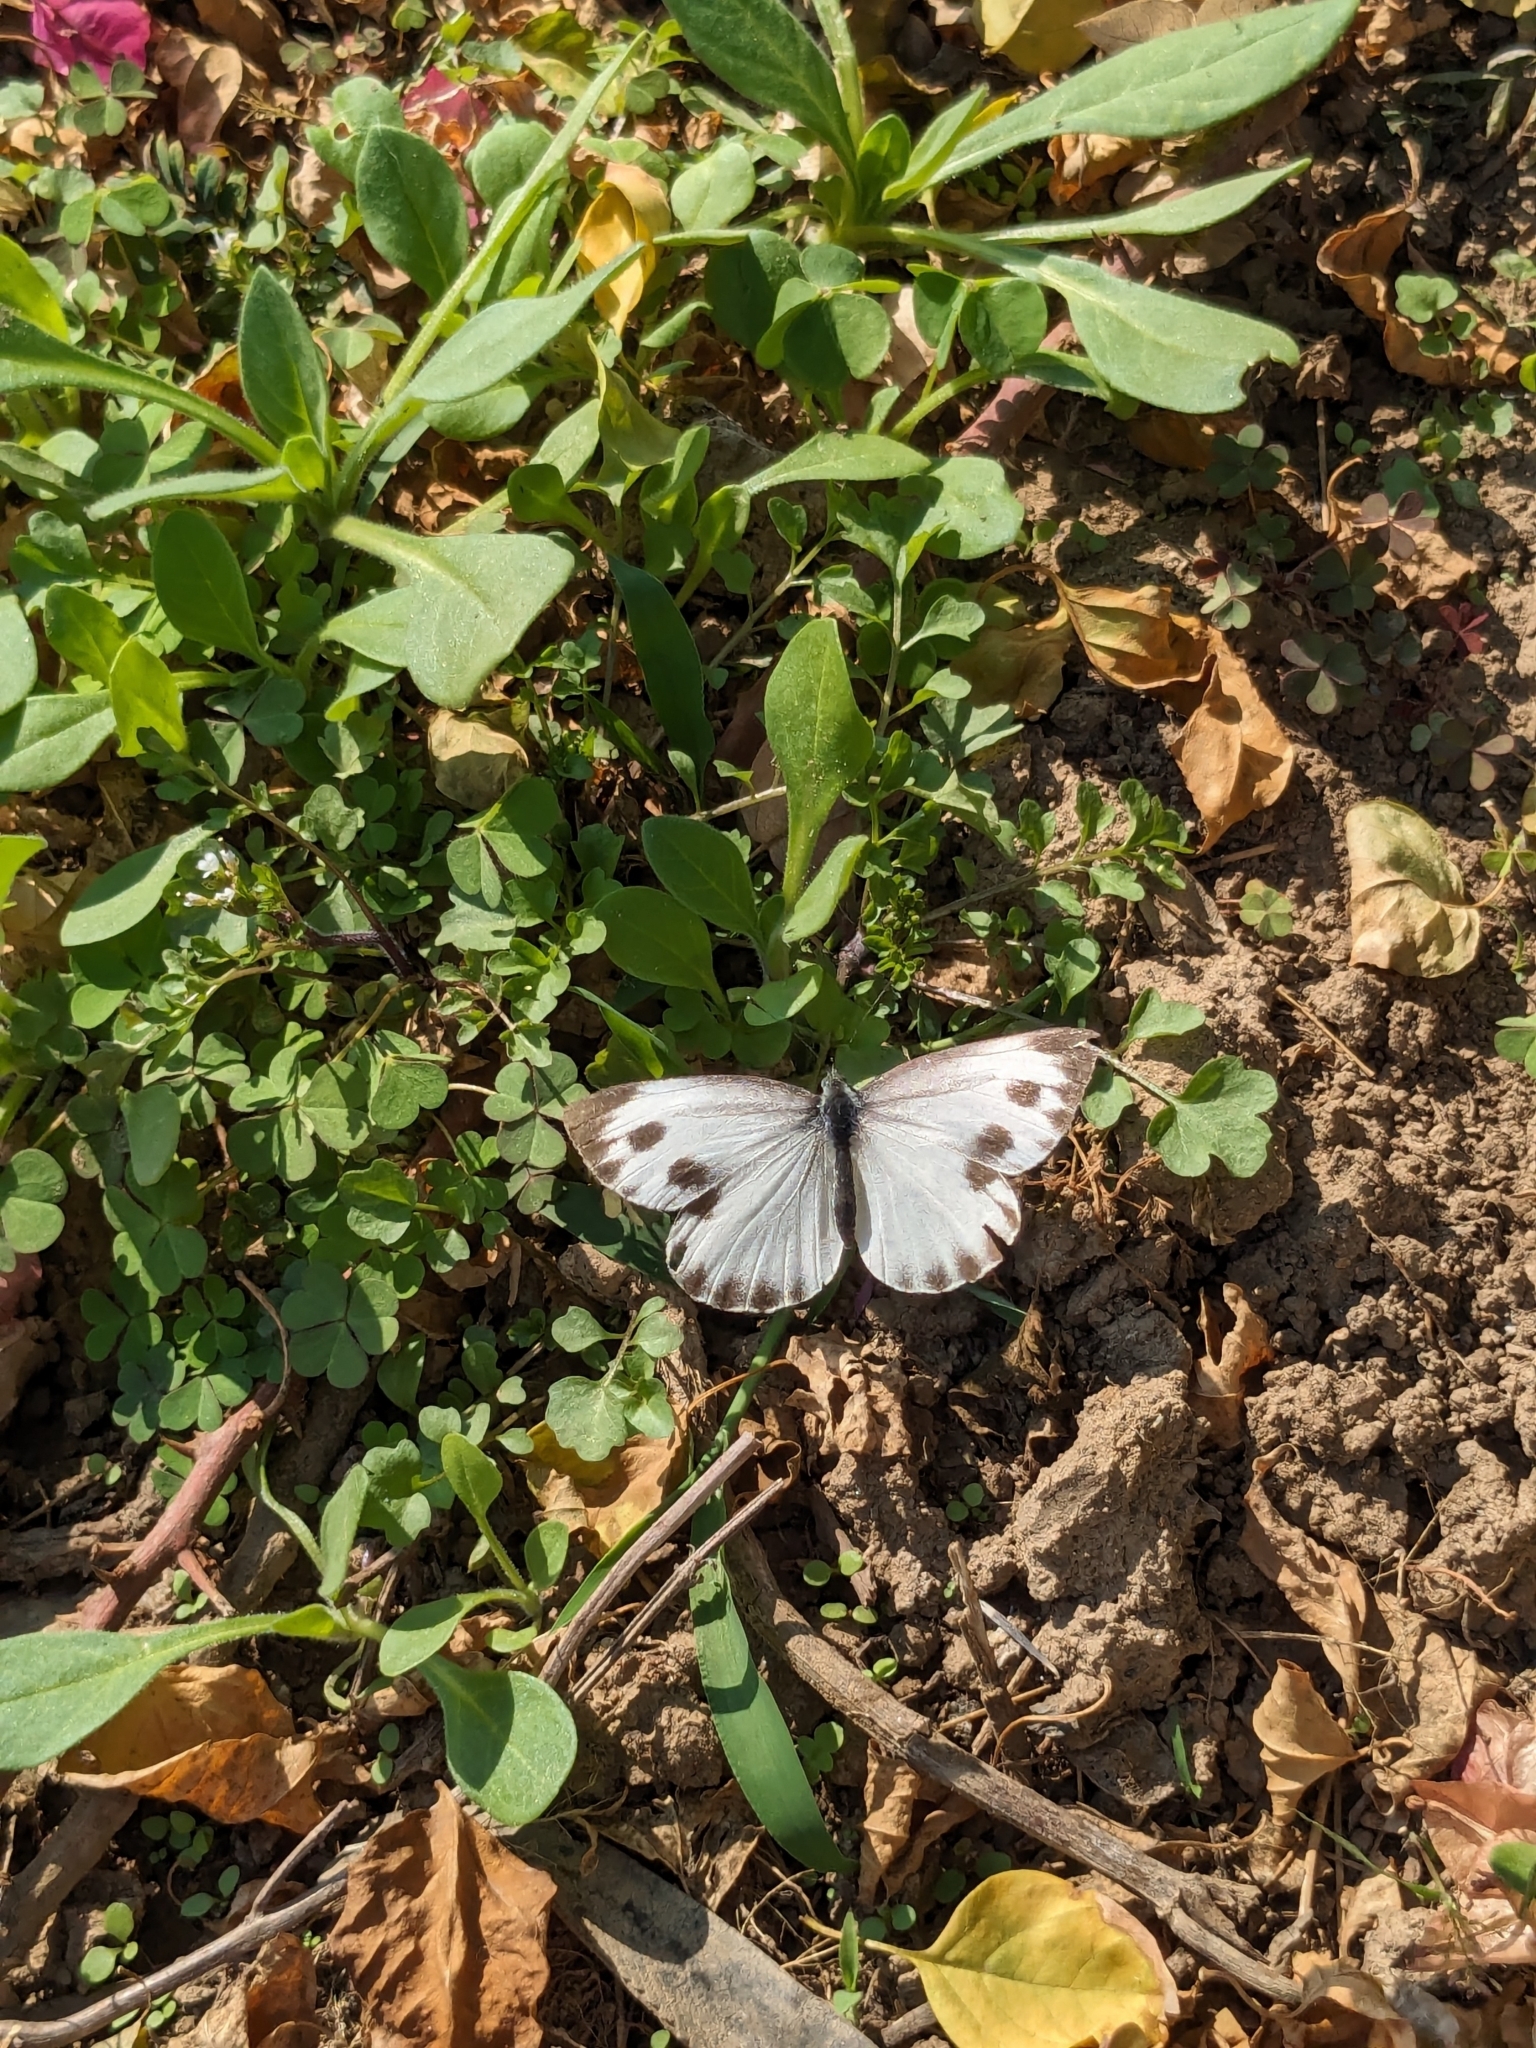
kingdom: Animalia
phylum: Arthropoda
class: Insecta
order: Lepidoptera
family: Pieridae
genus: Pieris
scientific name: Pieris canidia
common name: Indian cabbage white
